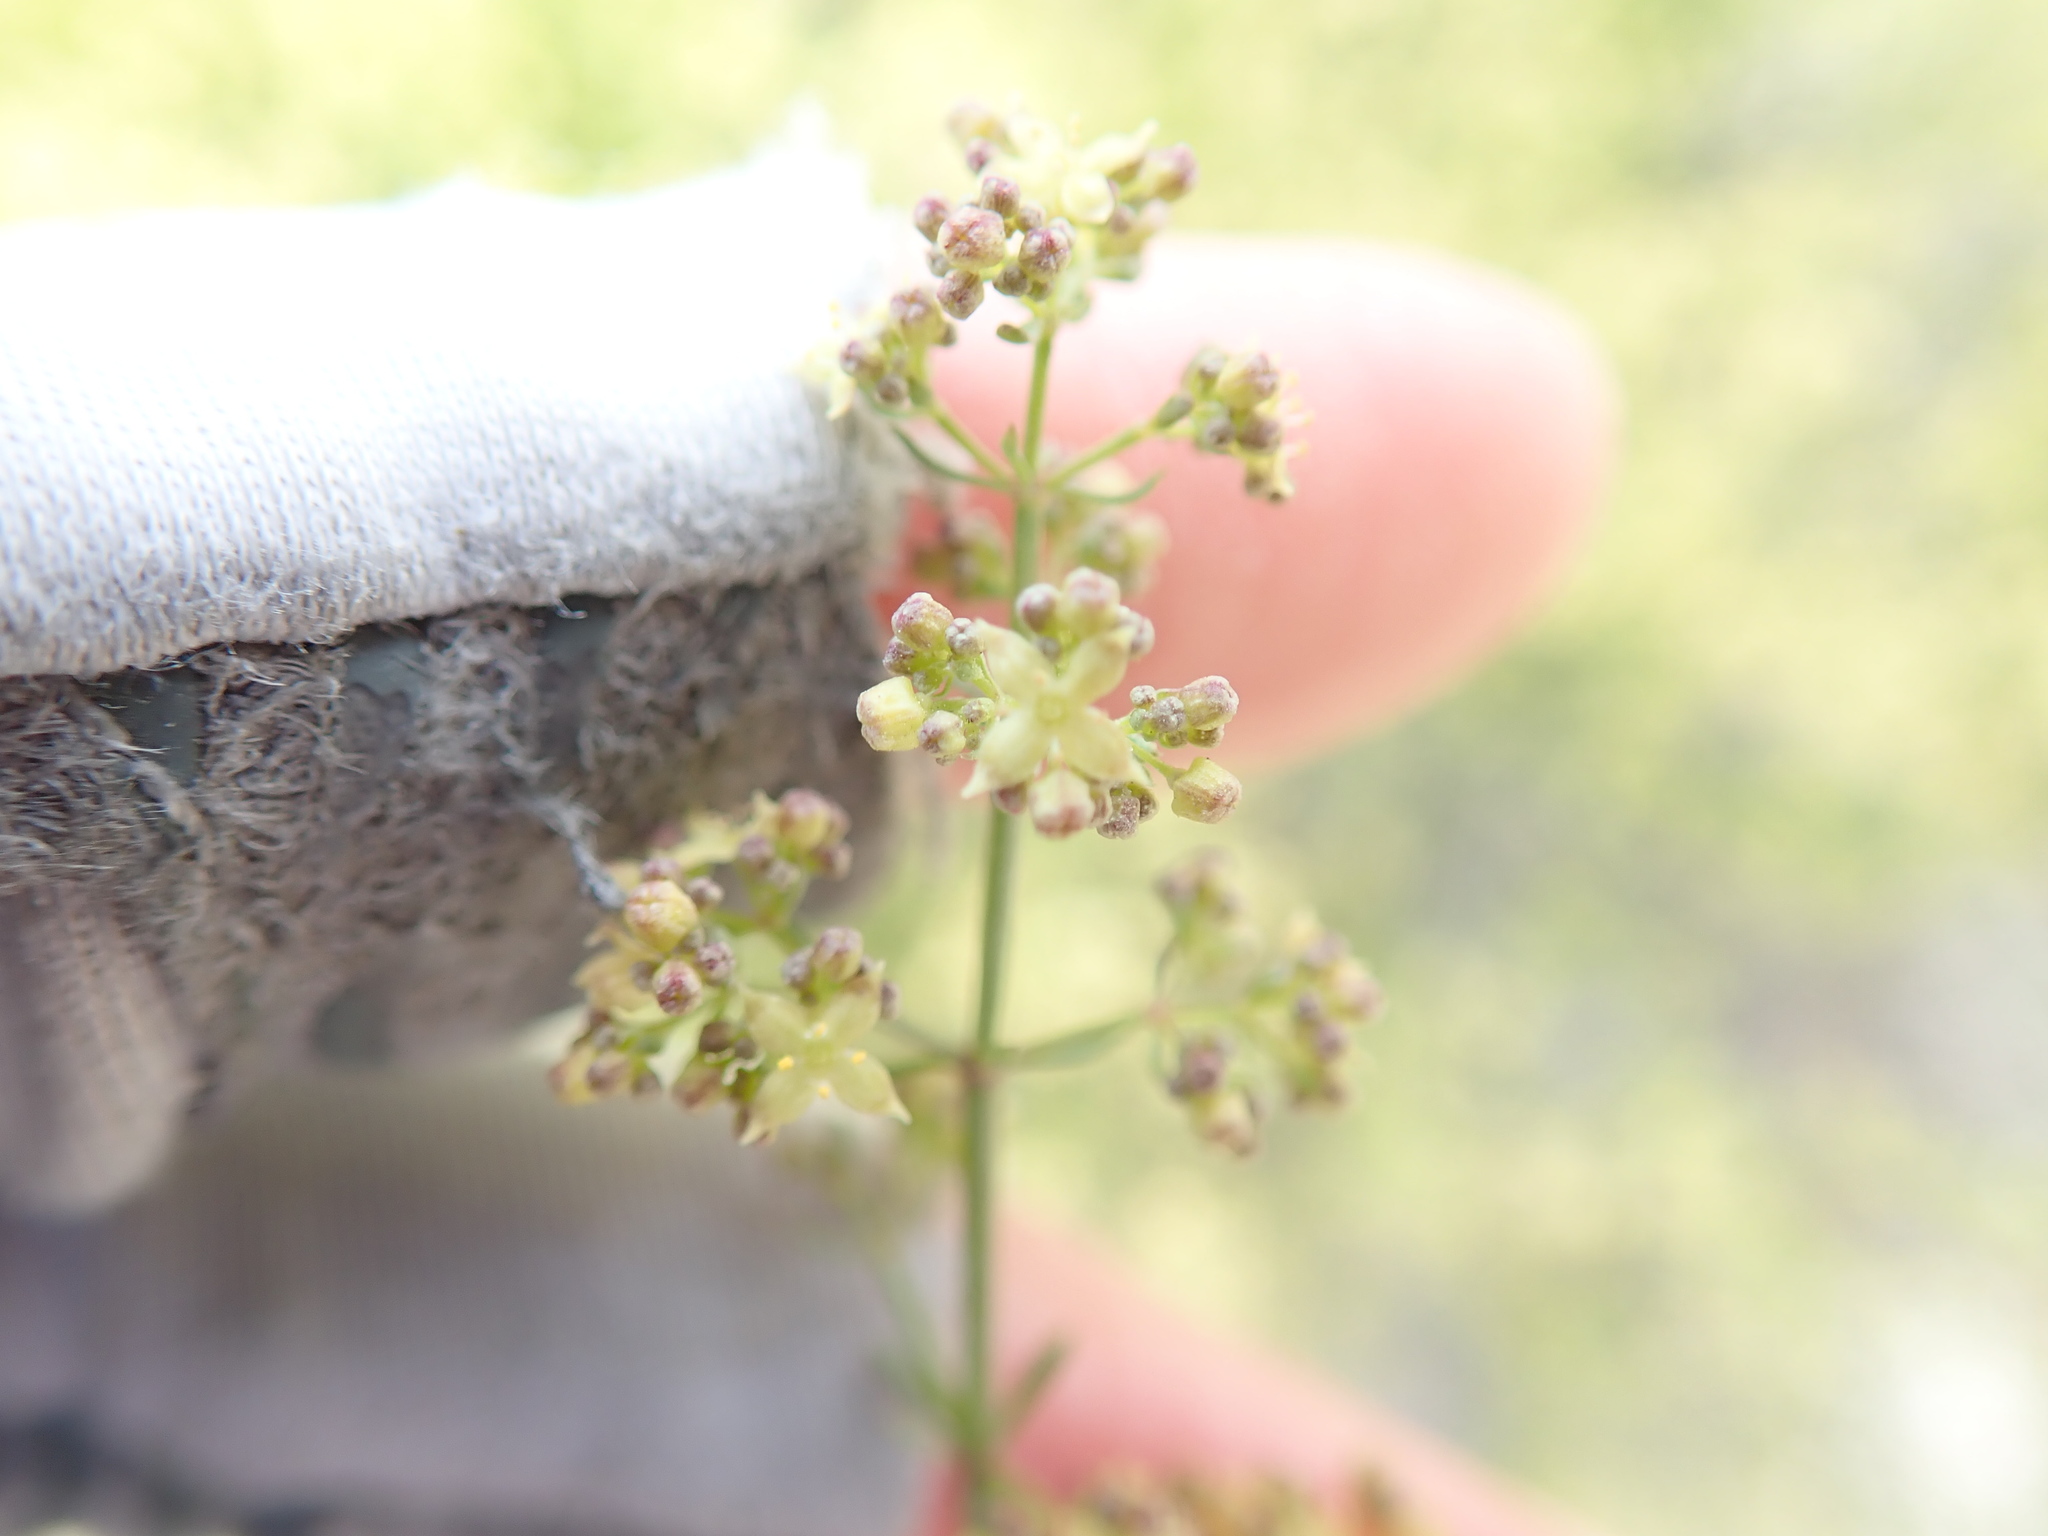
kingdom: Plantae
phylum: Tracheophyta
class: Magnoliopsida
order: Gentianales
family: Rubiaceae
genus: Galium
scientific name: Galium angustifolium
